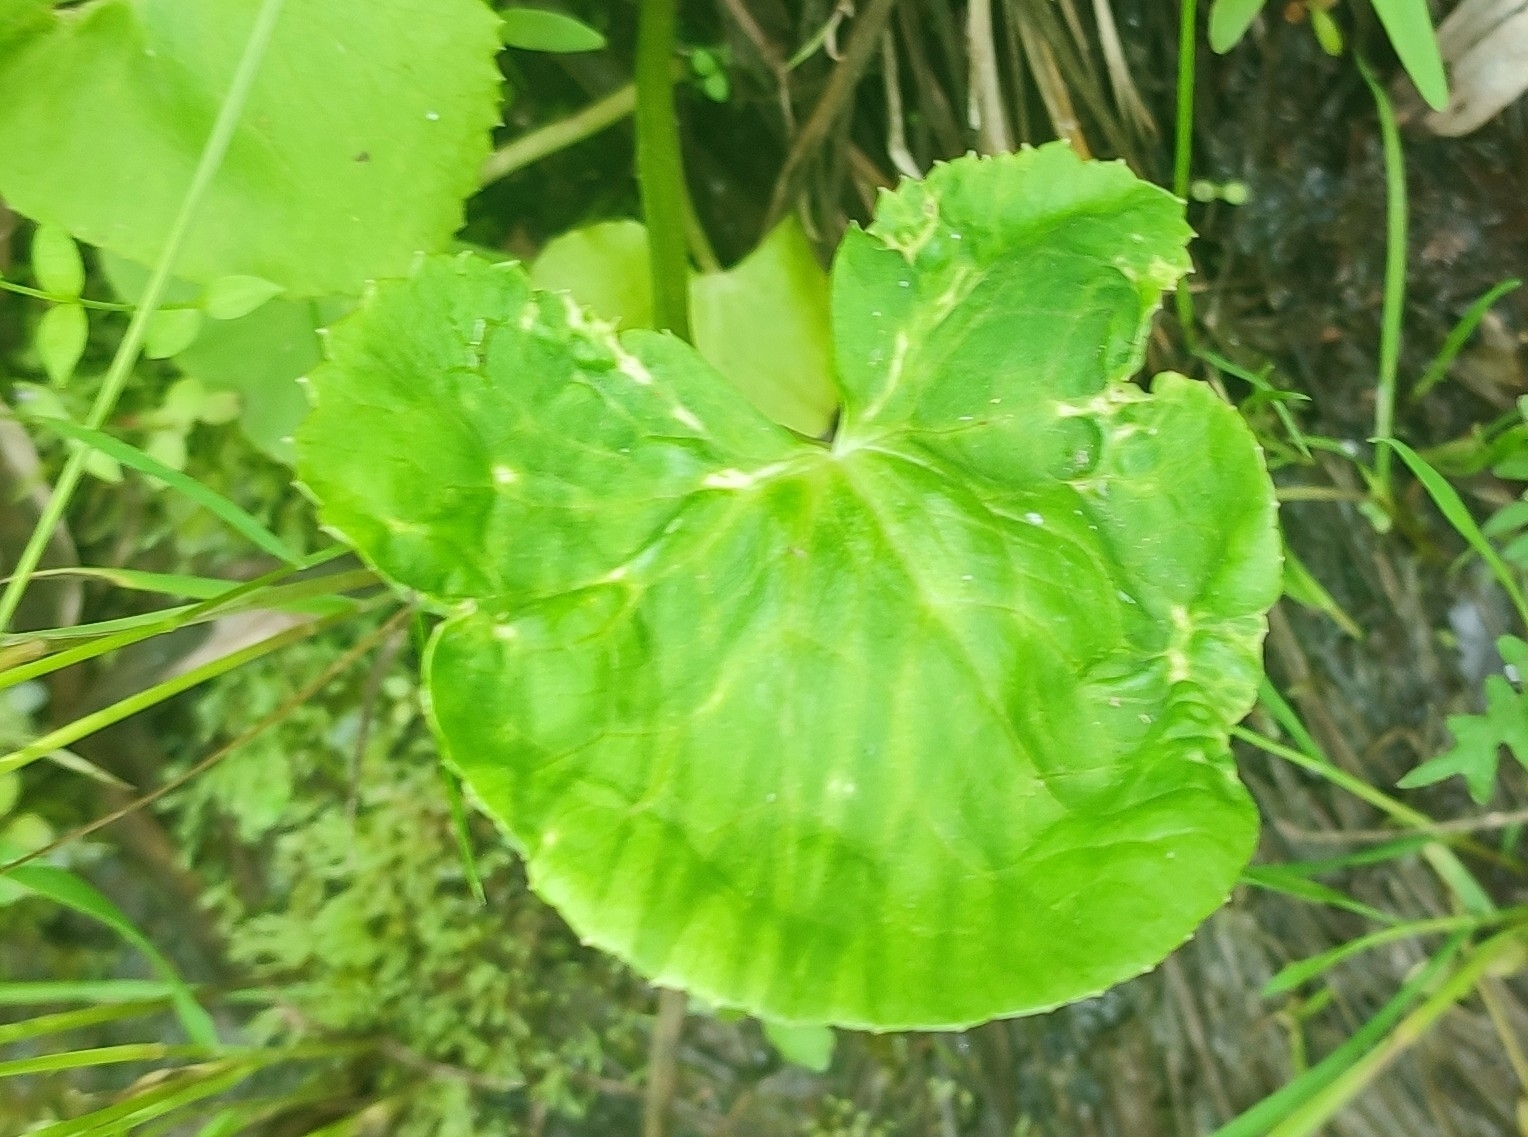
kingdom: Plantae
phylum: Tracheophyta
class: Magnoliopsida
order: Ranunculales
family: Ranunculaceae
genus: Caltha
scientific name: Caltha palustris
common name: Marsh marigold
